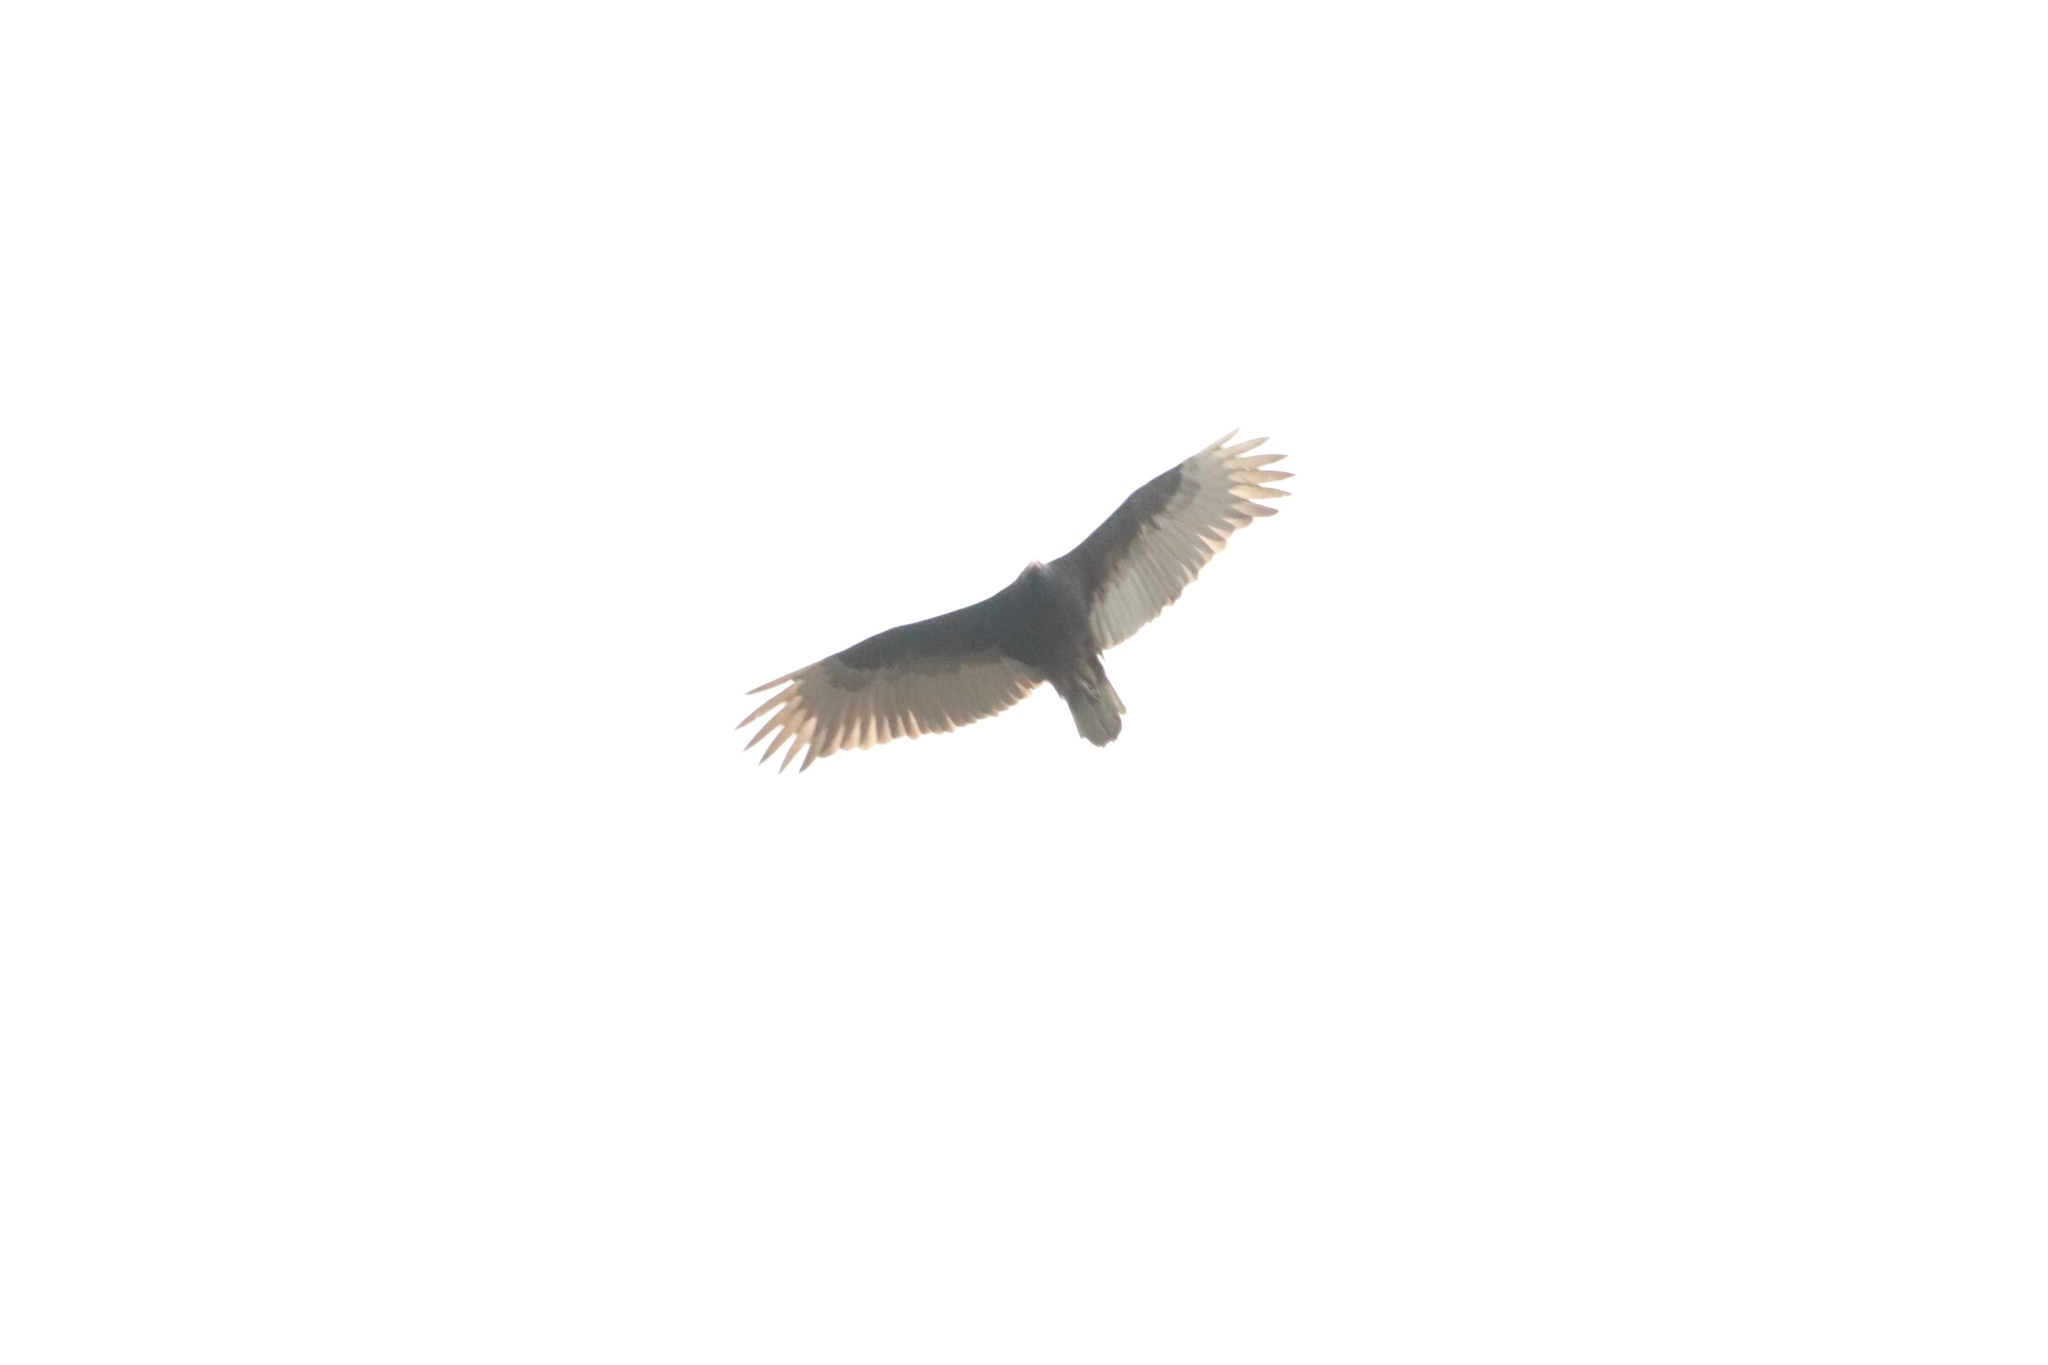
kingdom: Animalia
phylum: Chordata
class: Aves
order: Accipitriformes
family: Cathartidae
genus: Cathartes
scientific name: Cathartes aura
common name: Turkey vulture
